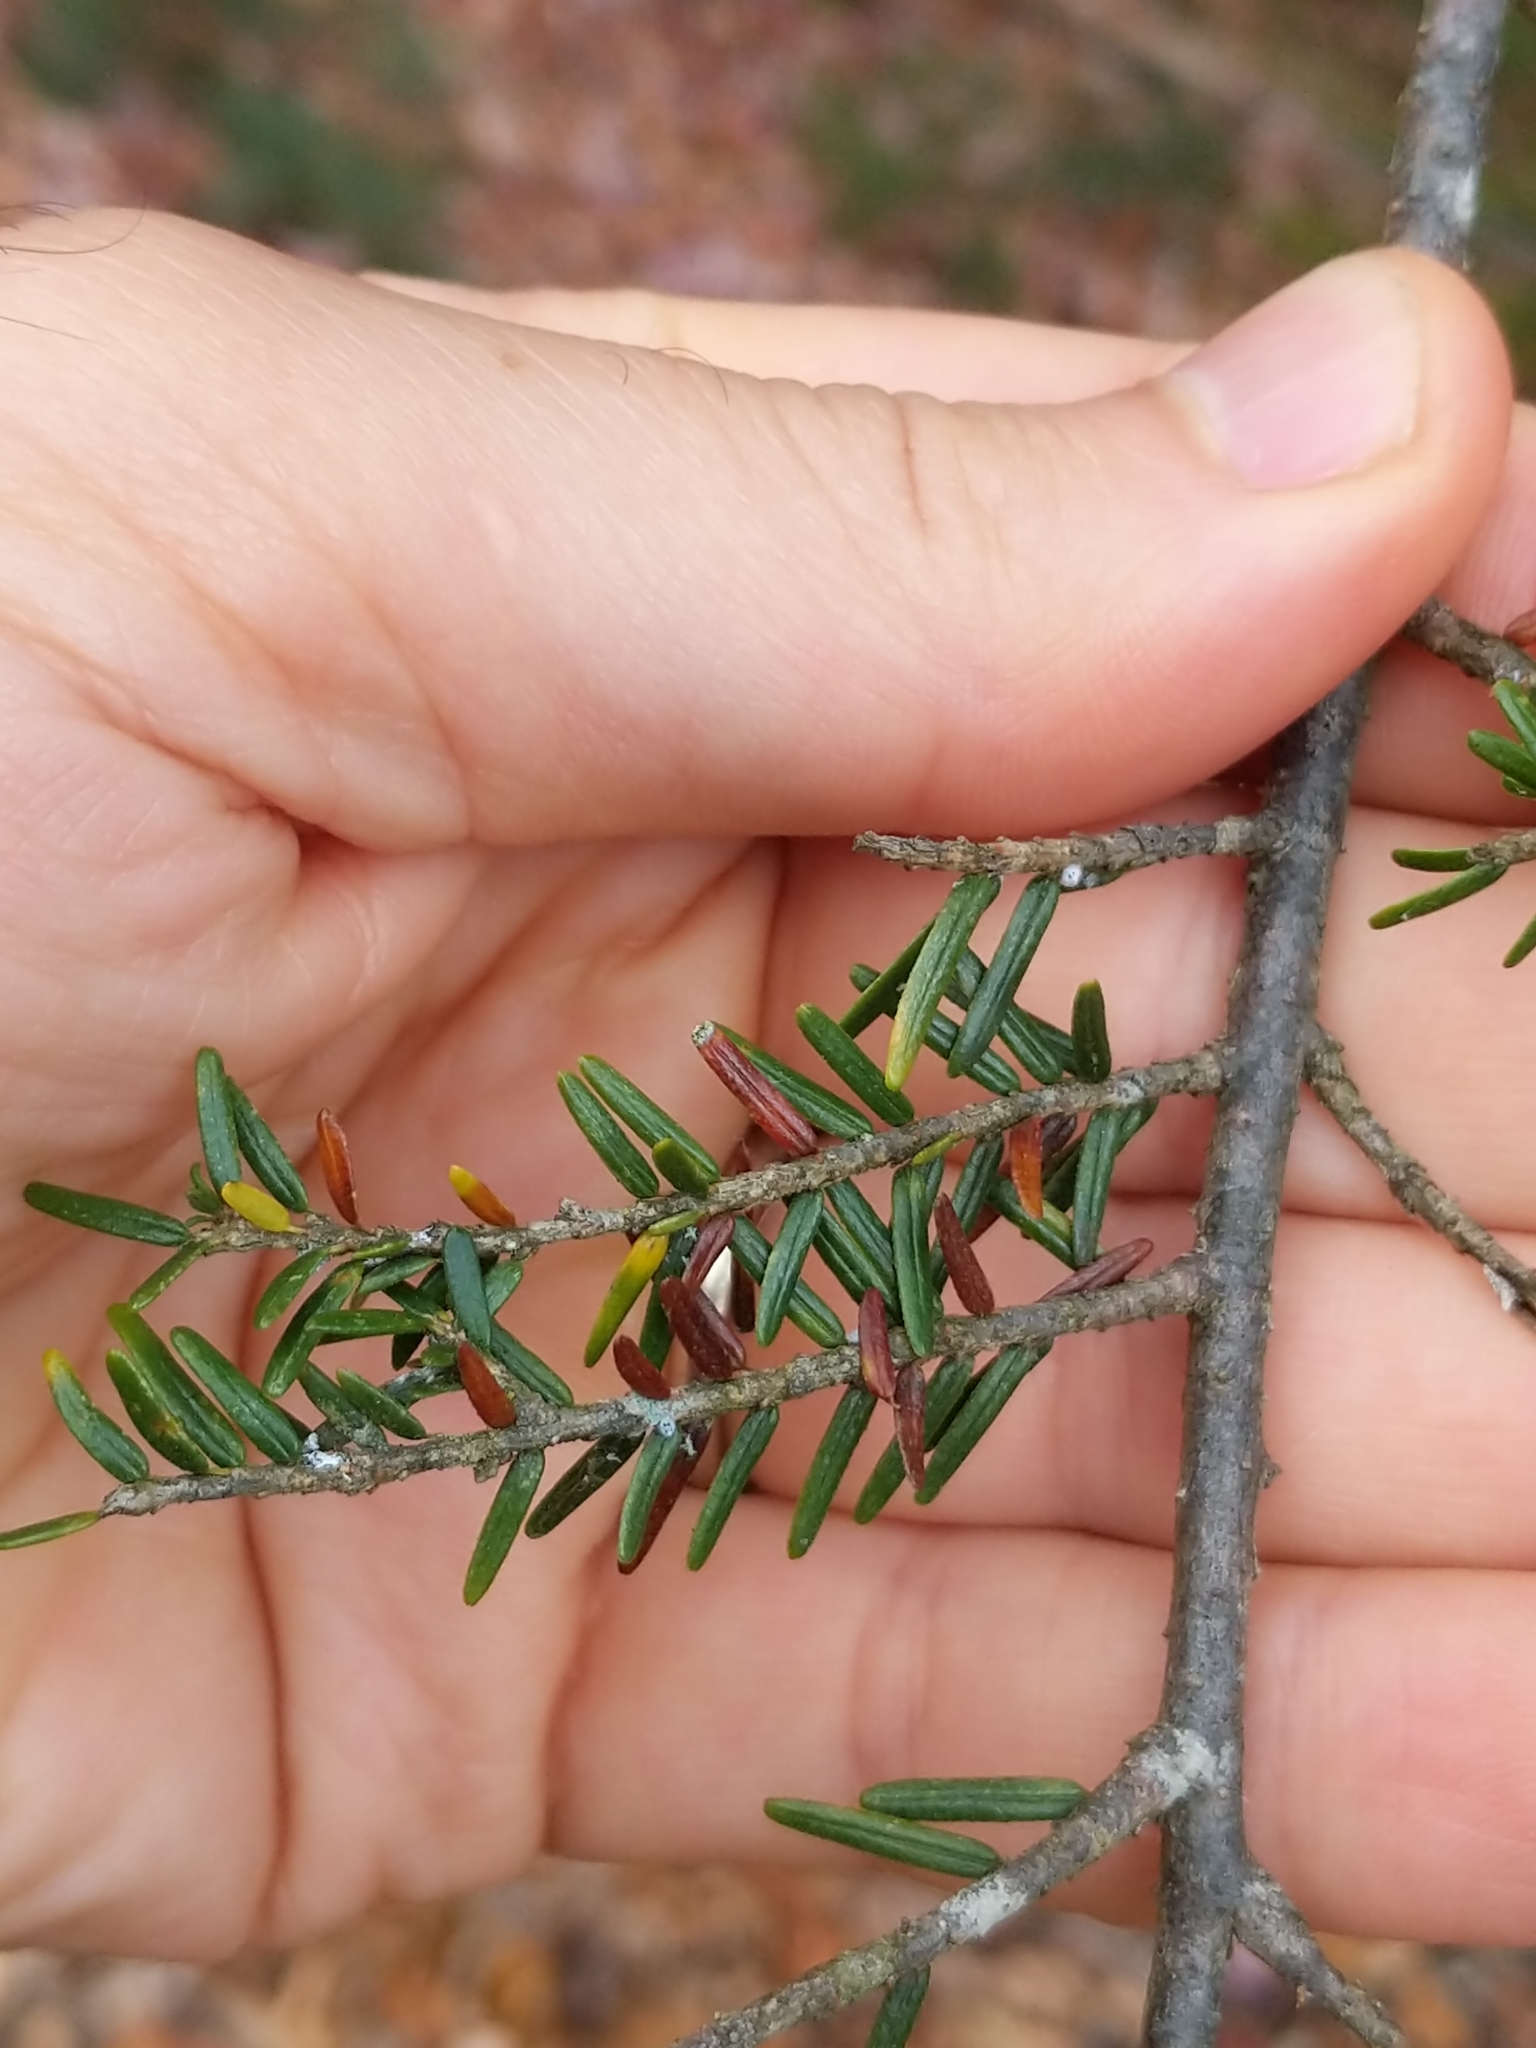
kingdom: Plantae
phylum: Tracheophyta
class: Pinopsida
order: Pinales
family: Pinaceae
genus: Tsuga
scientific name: Tsuga canadensis
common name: Eastern hemlock
